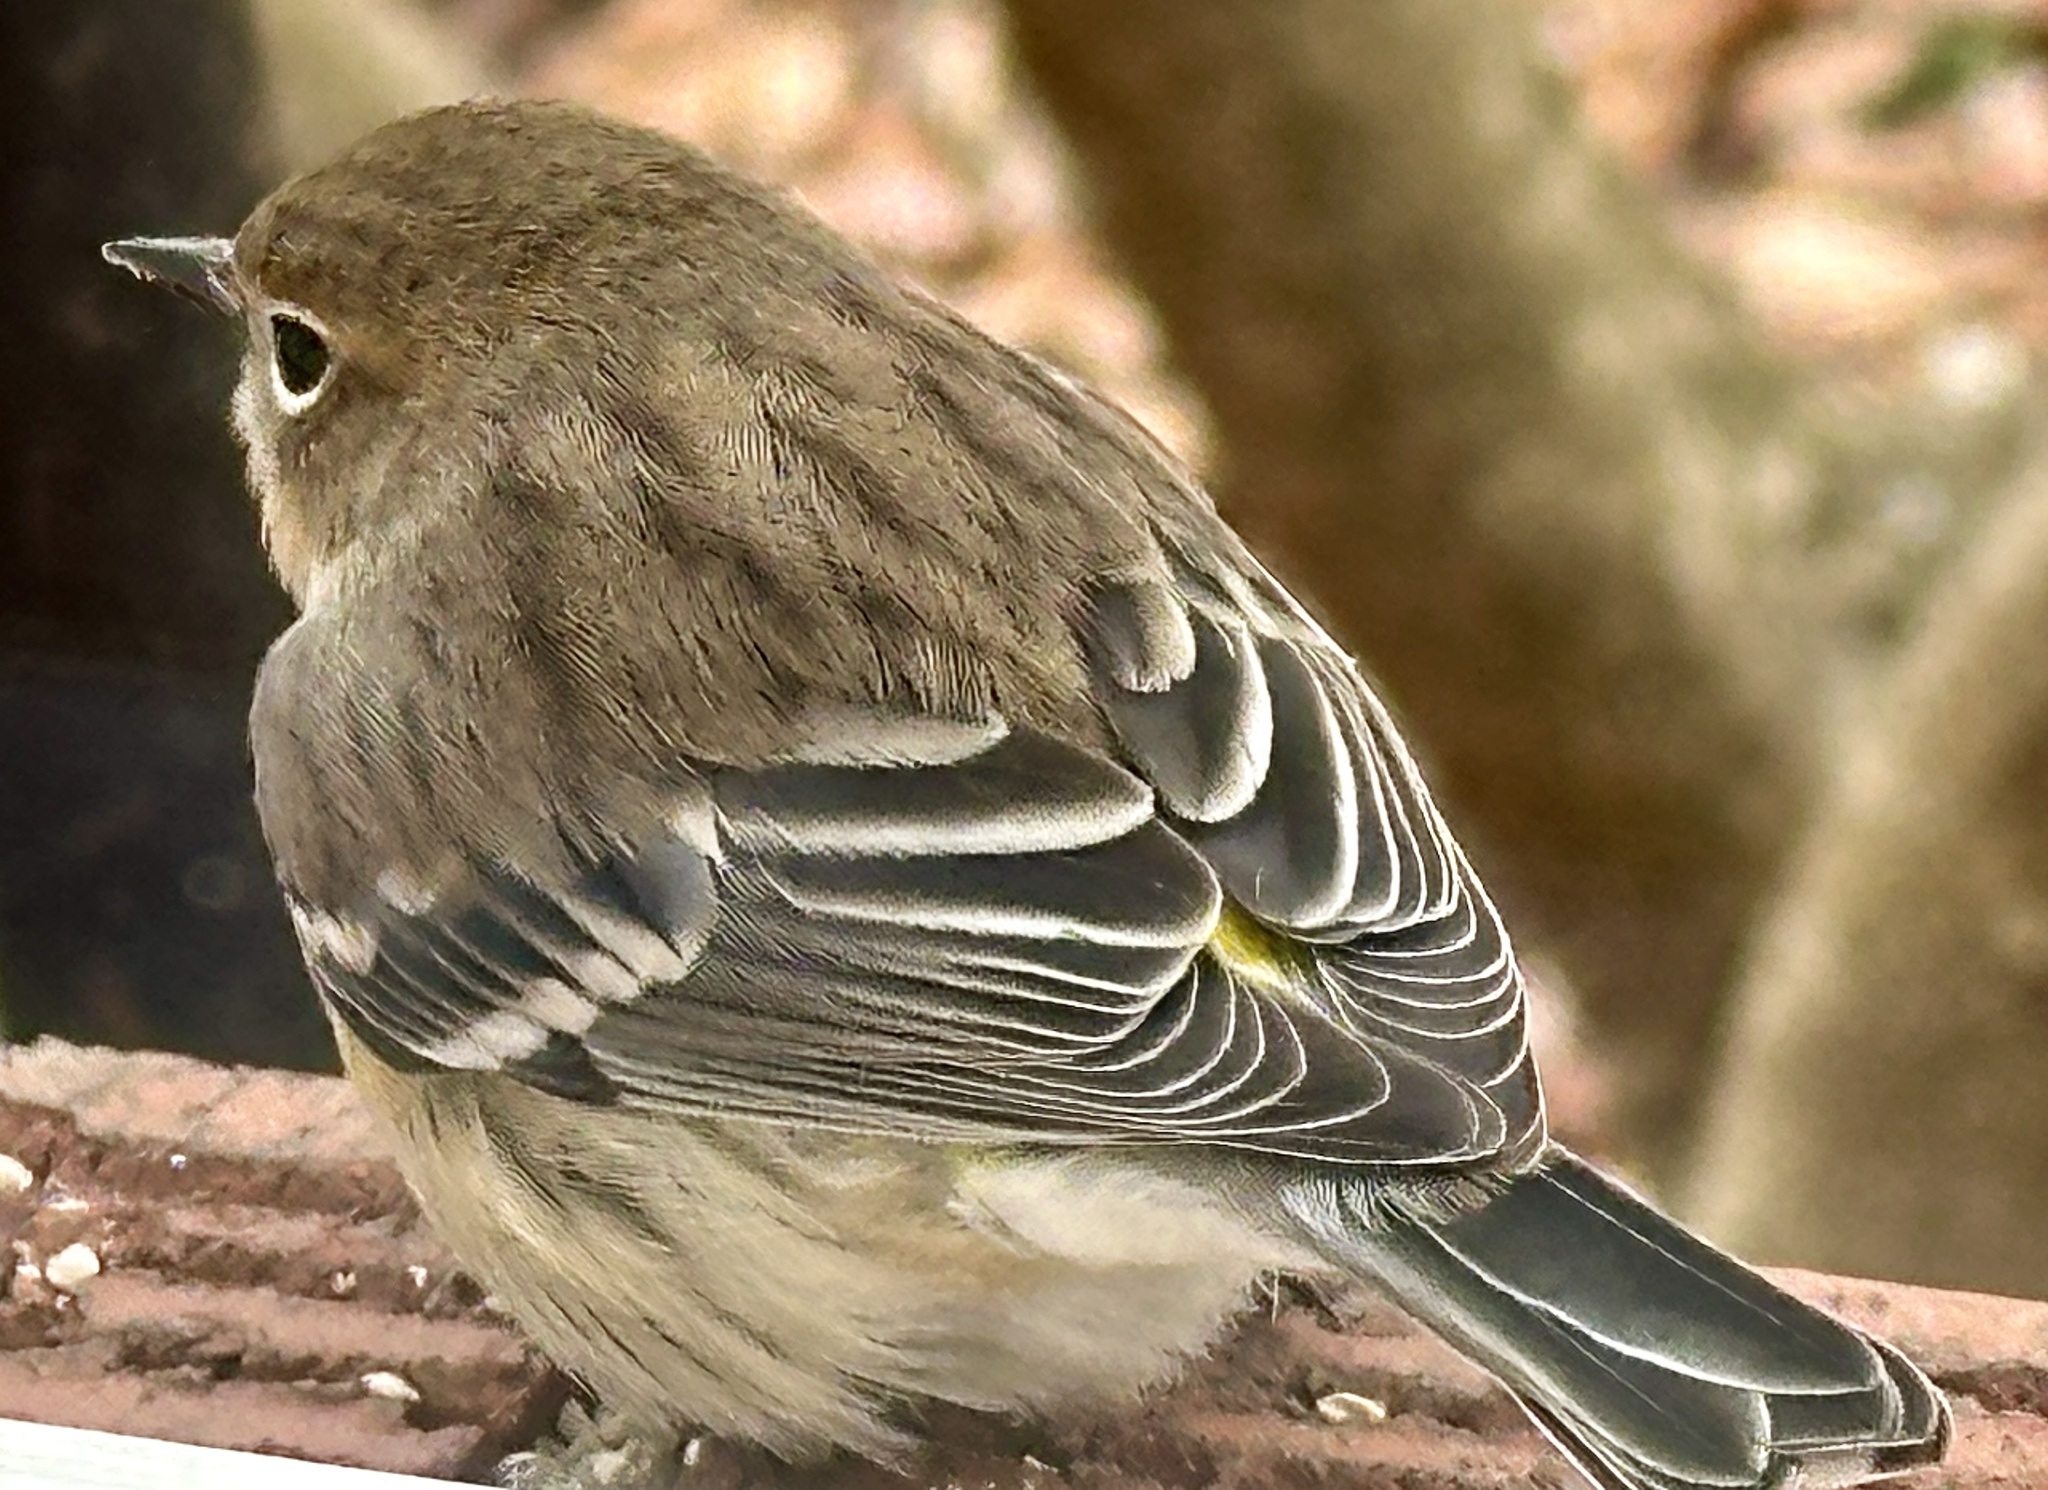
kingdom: Animalia
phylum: Chordata
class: Aves
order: Passeriformes
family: Parulidae
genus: Setophaga
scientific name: Setophaga coronata
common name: Myrtle warbler
